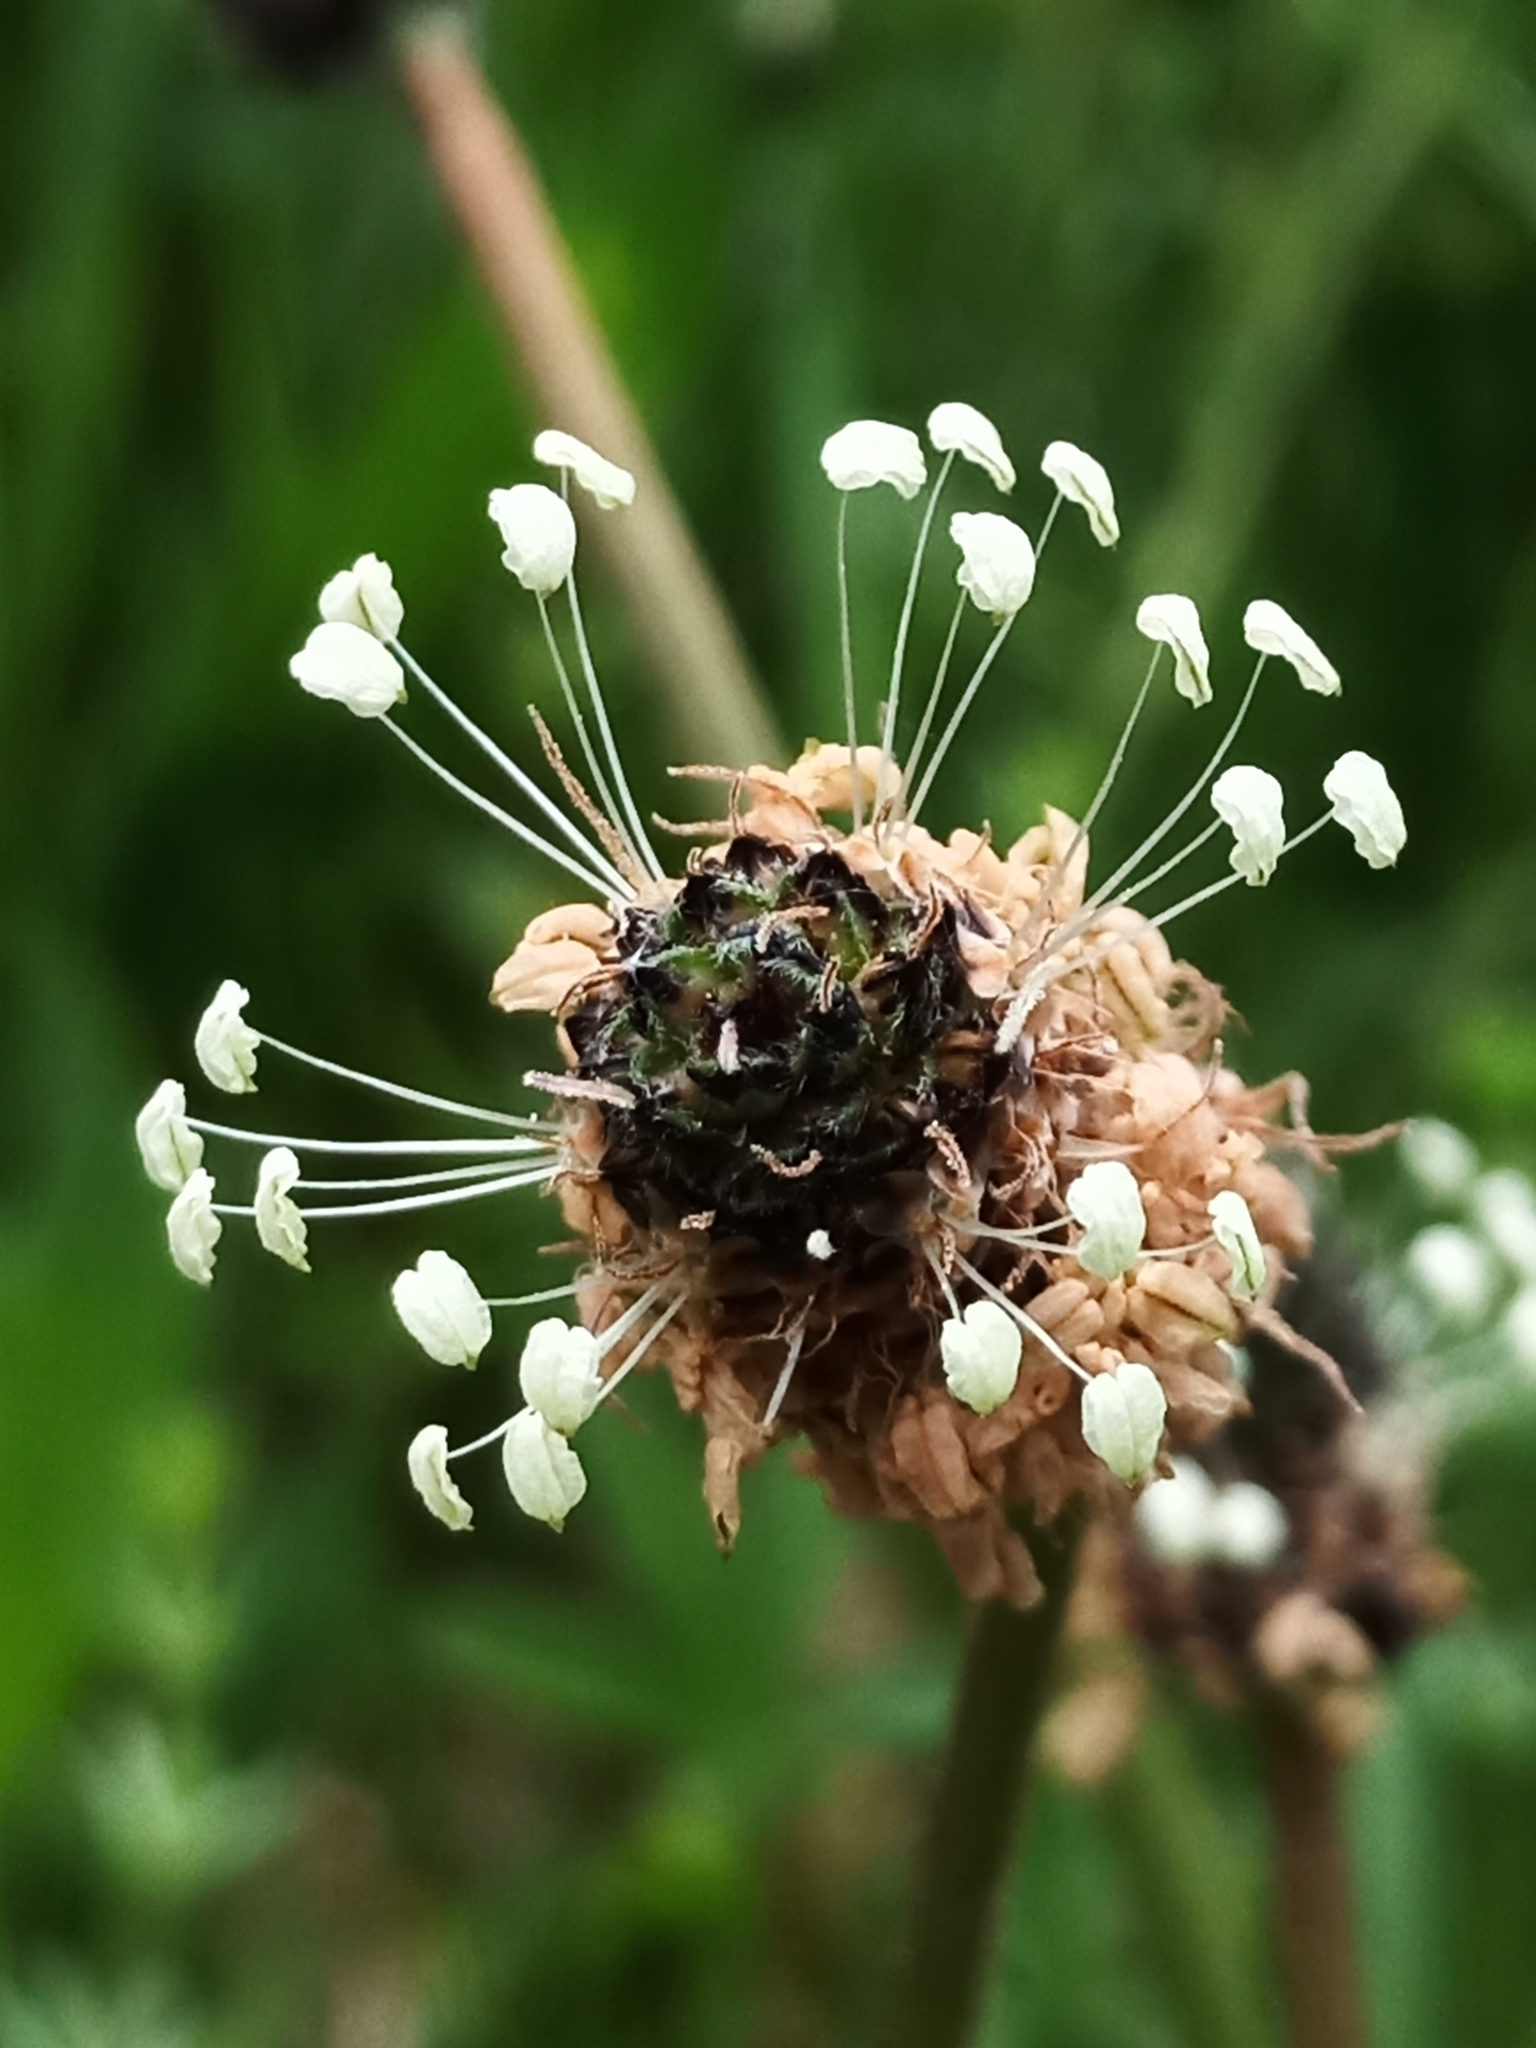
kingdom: Plantae
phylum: Tracheophyta
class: Magnoliopsida
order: Lamiales
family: Plantaginaceae
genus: Plantago
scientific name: Plantago lanceolata
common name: Ribwort plantain
